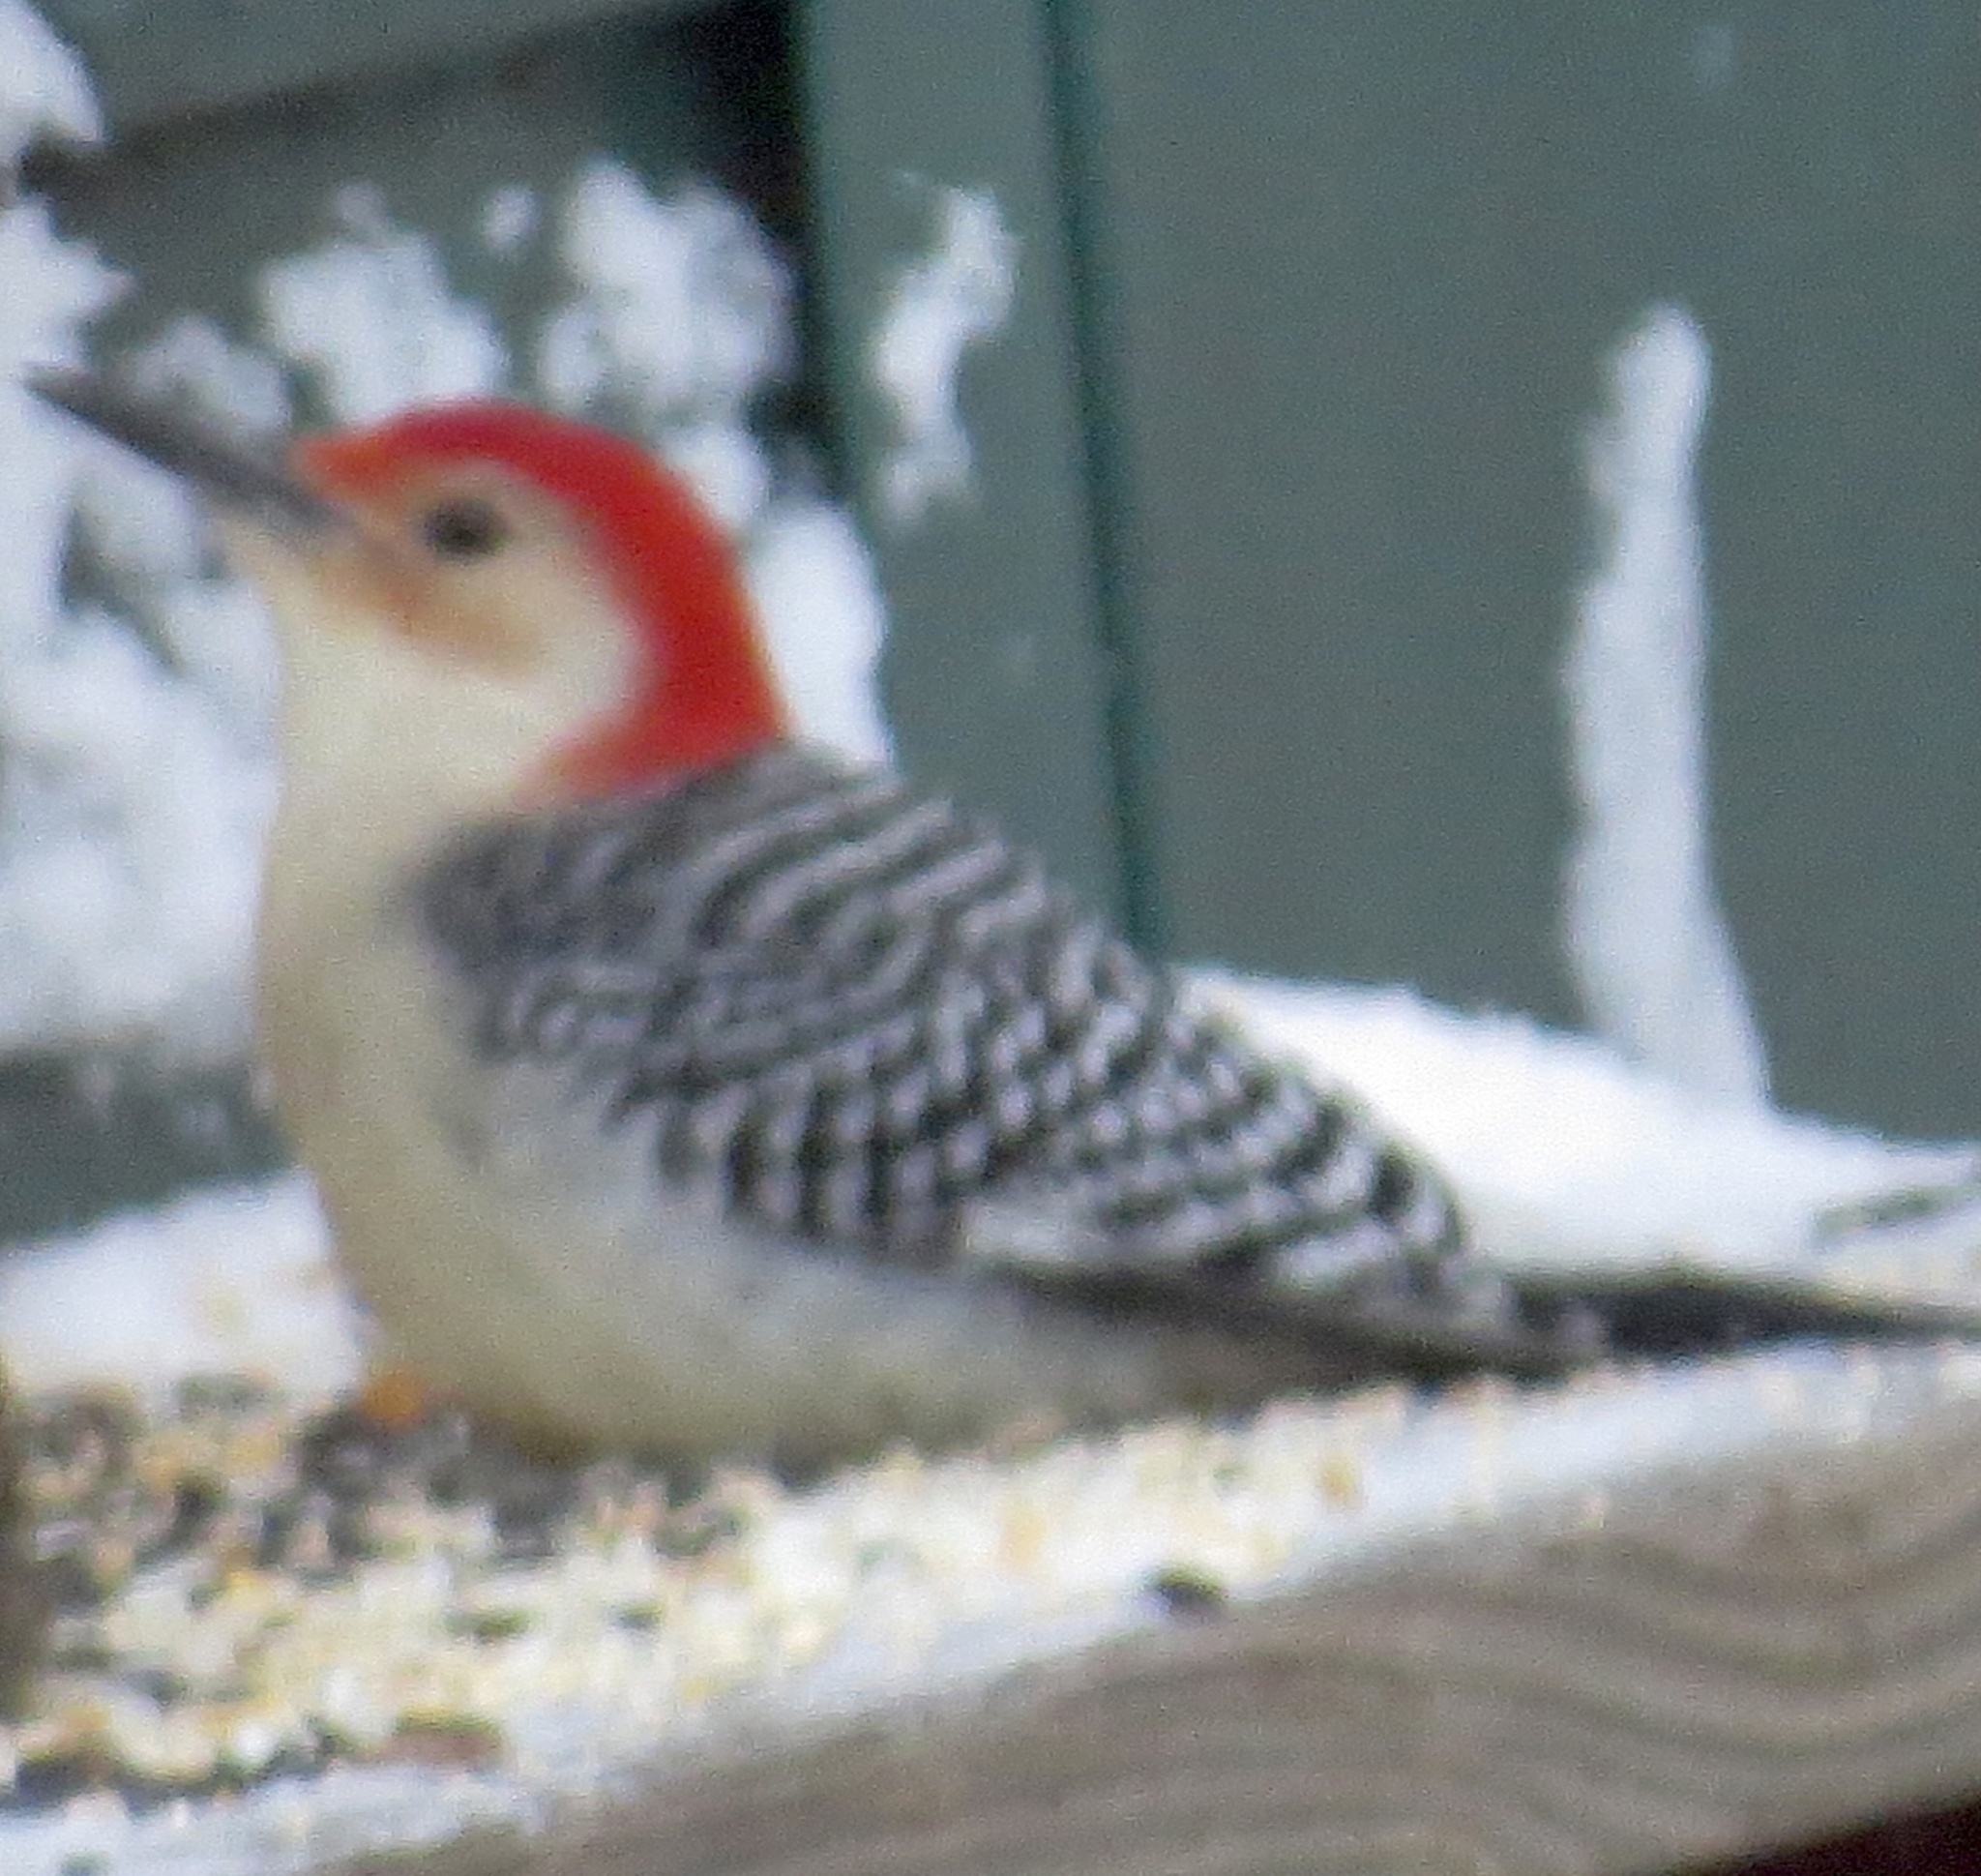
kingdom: Animalia
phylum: Chordata
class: Aves
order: Piciformes
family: Picidae
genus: Melanerpes
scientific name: Melanerpes carolinus
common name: Red-bellied woodpecker
